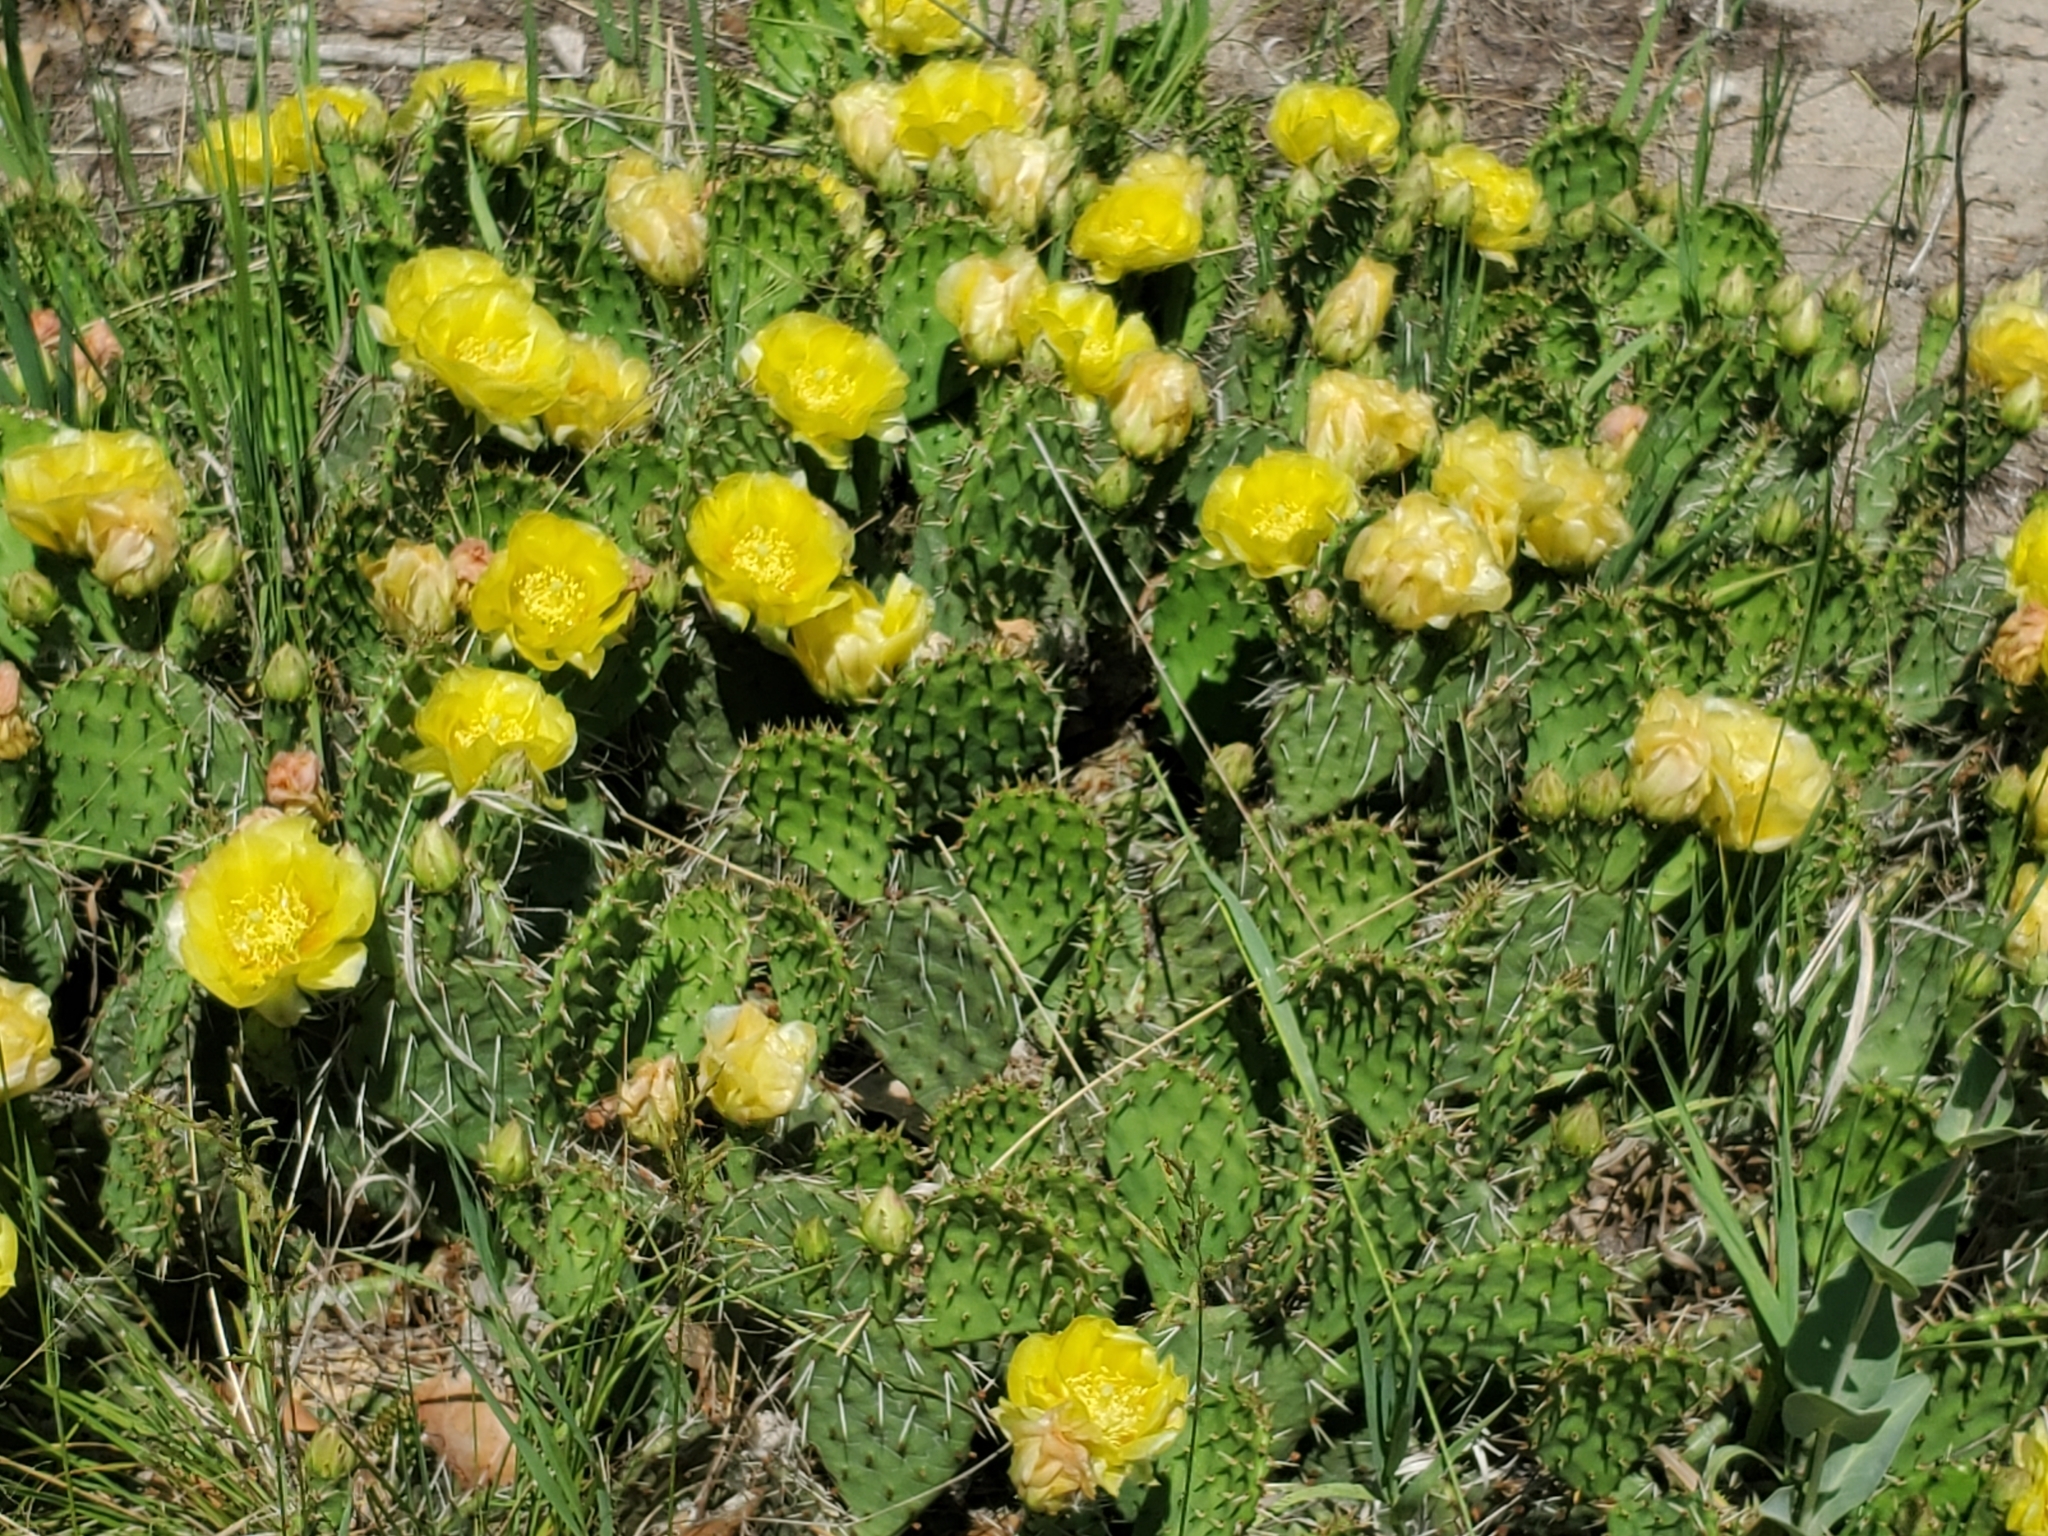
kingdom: Plantae
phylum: Tracheophyta
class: Magnoliopsida
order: Caryophyllales
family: Cactaceae
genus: Opuntia
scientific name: Opuntia cymochila
